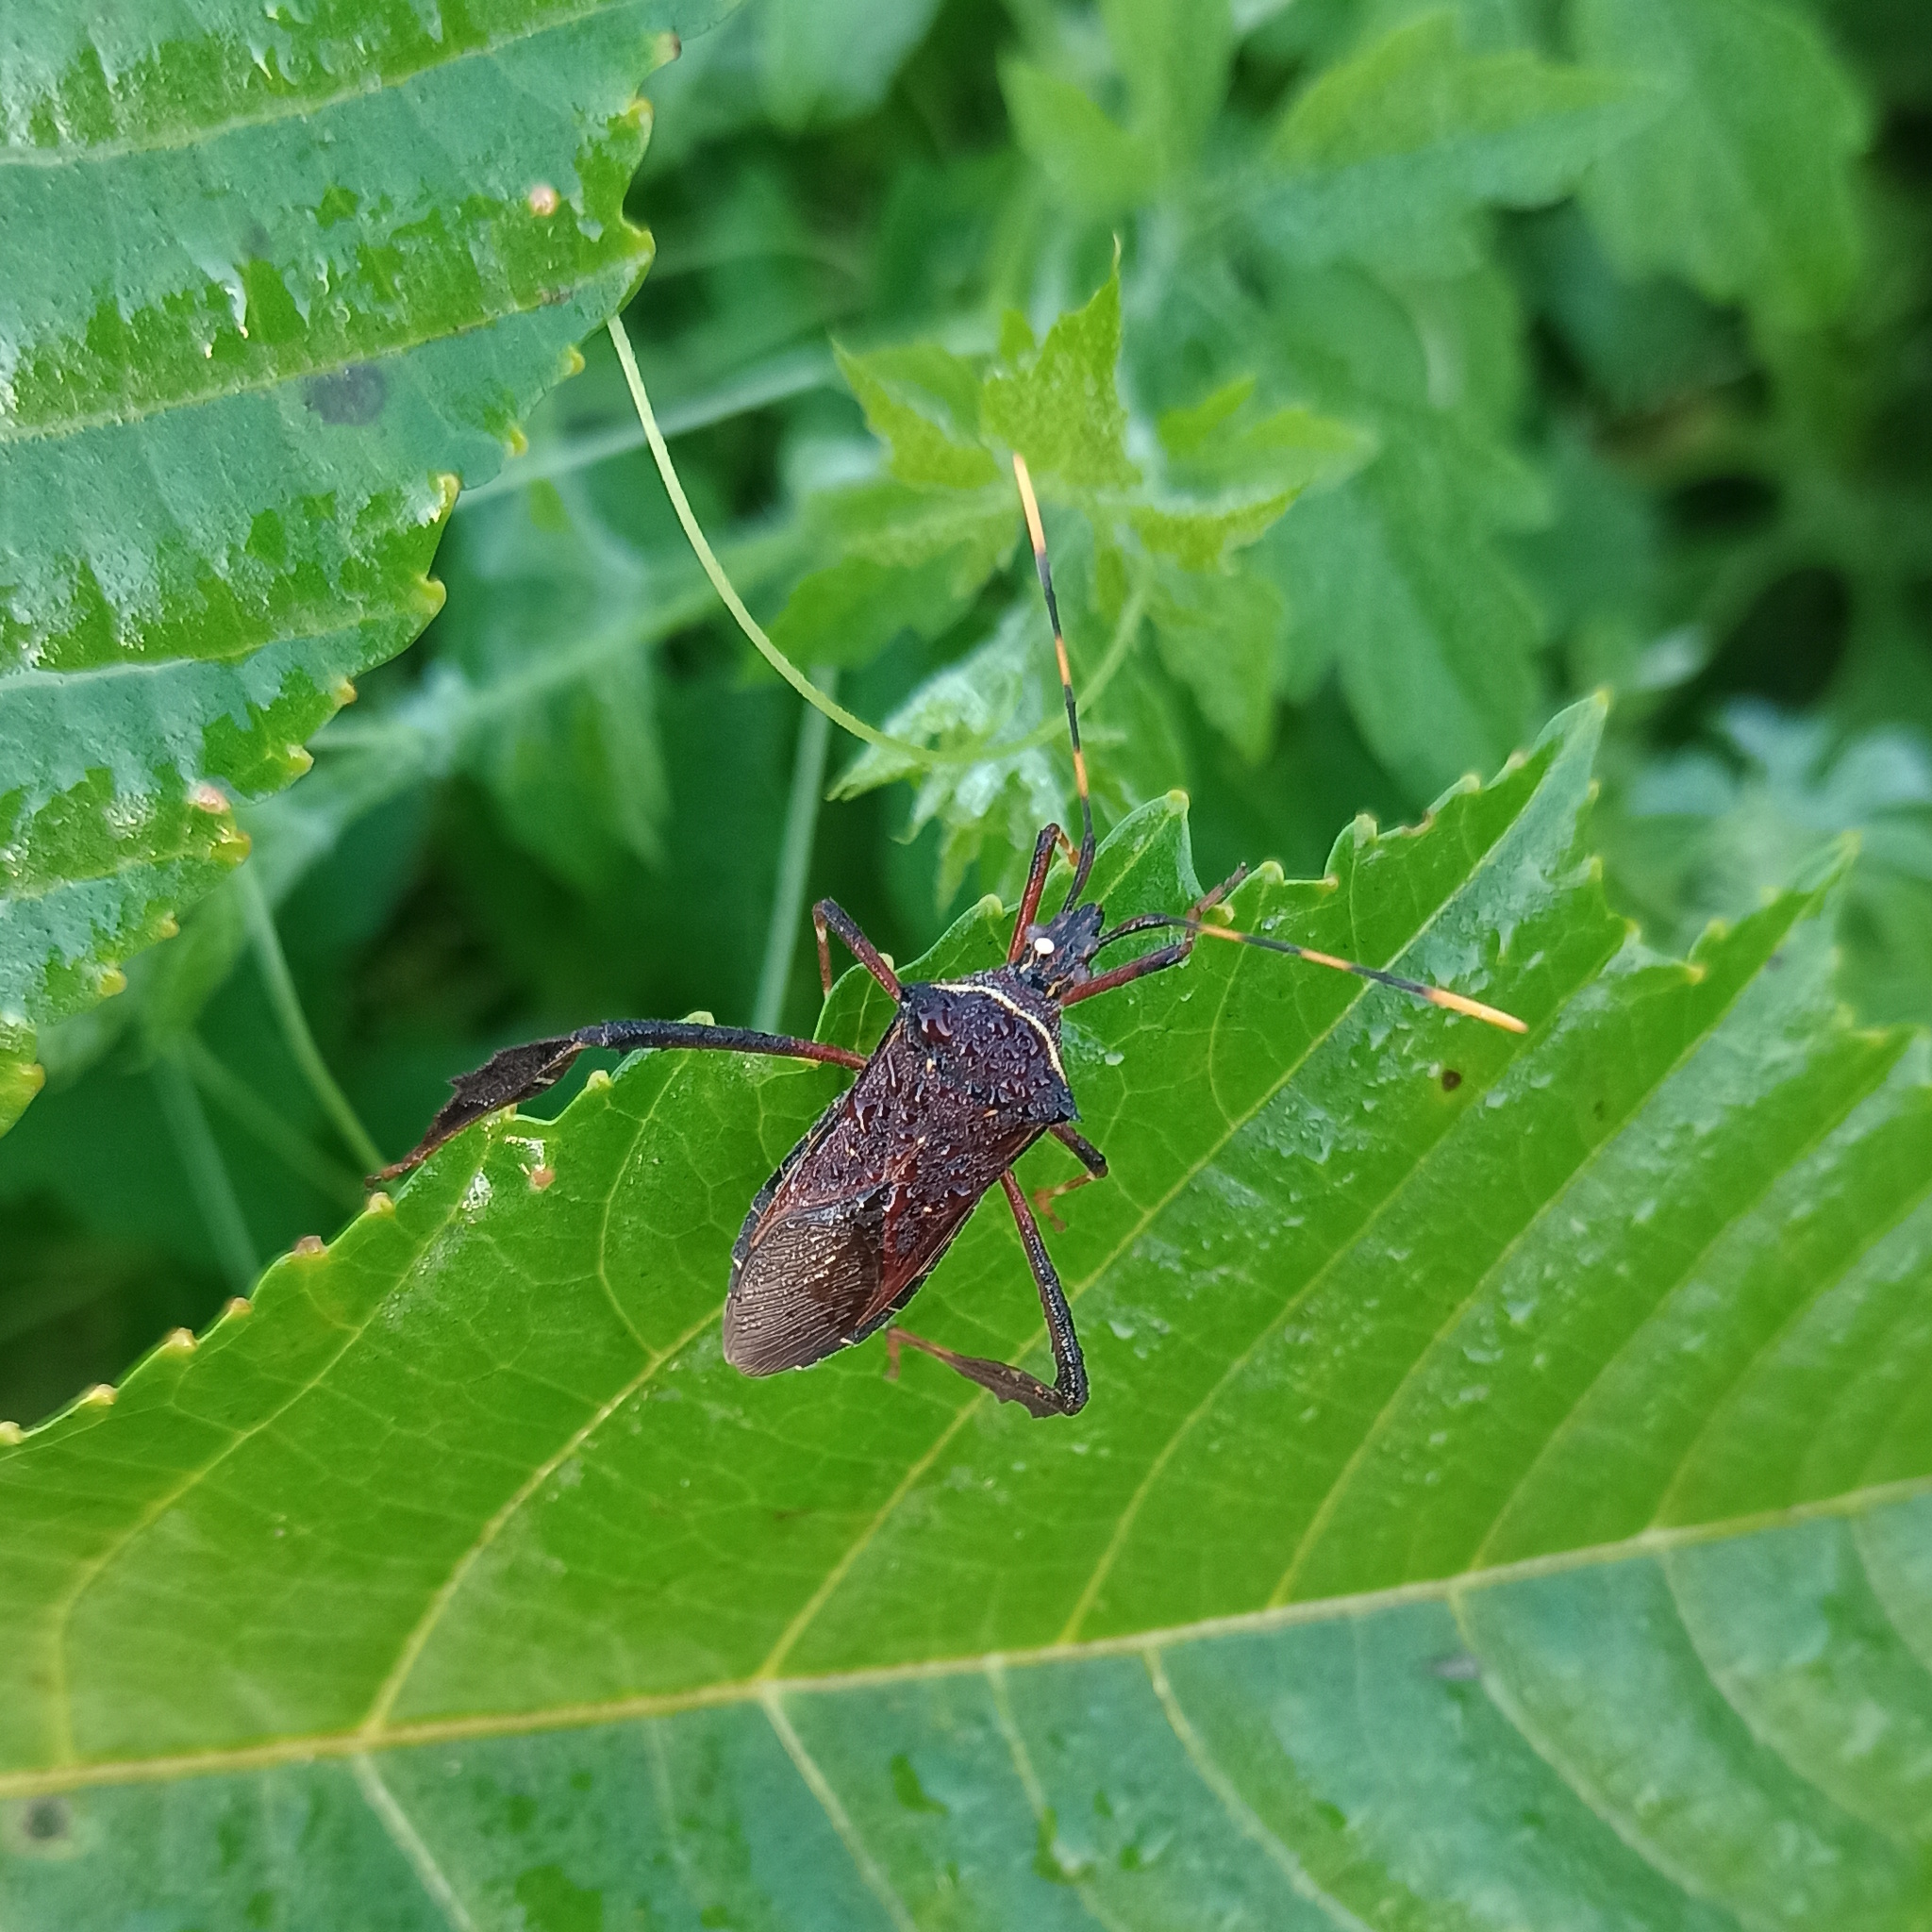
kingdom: Animalia
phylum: Arthropoda
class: Insecta
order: Hemiptera
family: Coreidae
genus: Leptoglossus
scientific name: Leptoglossus gonagra
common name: Citron bug
